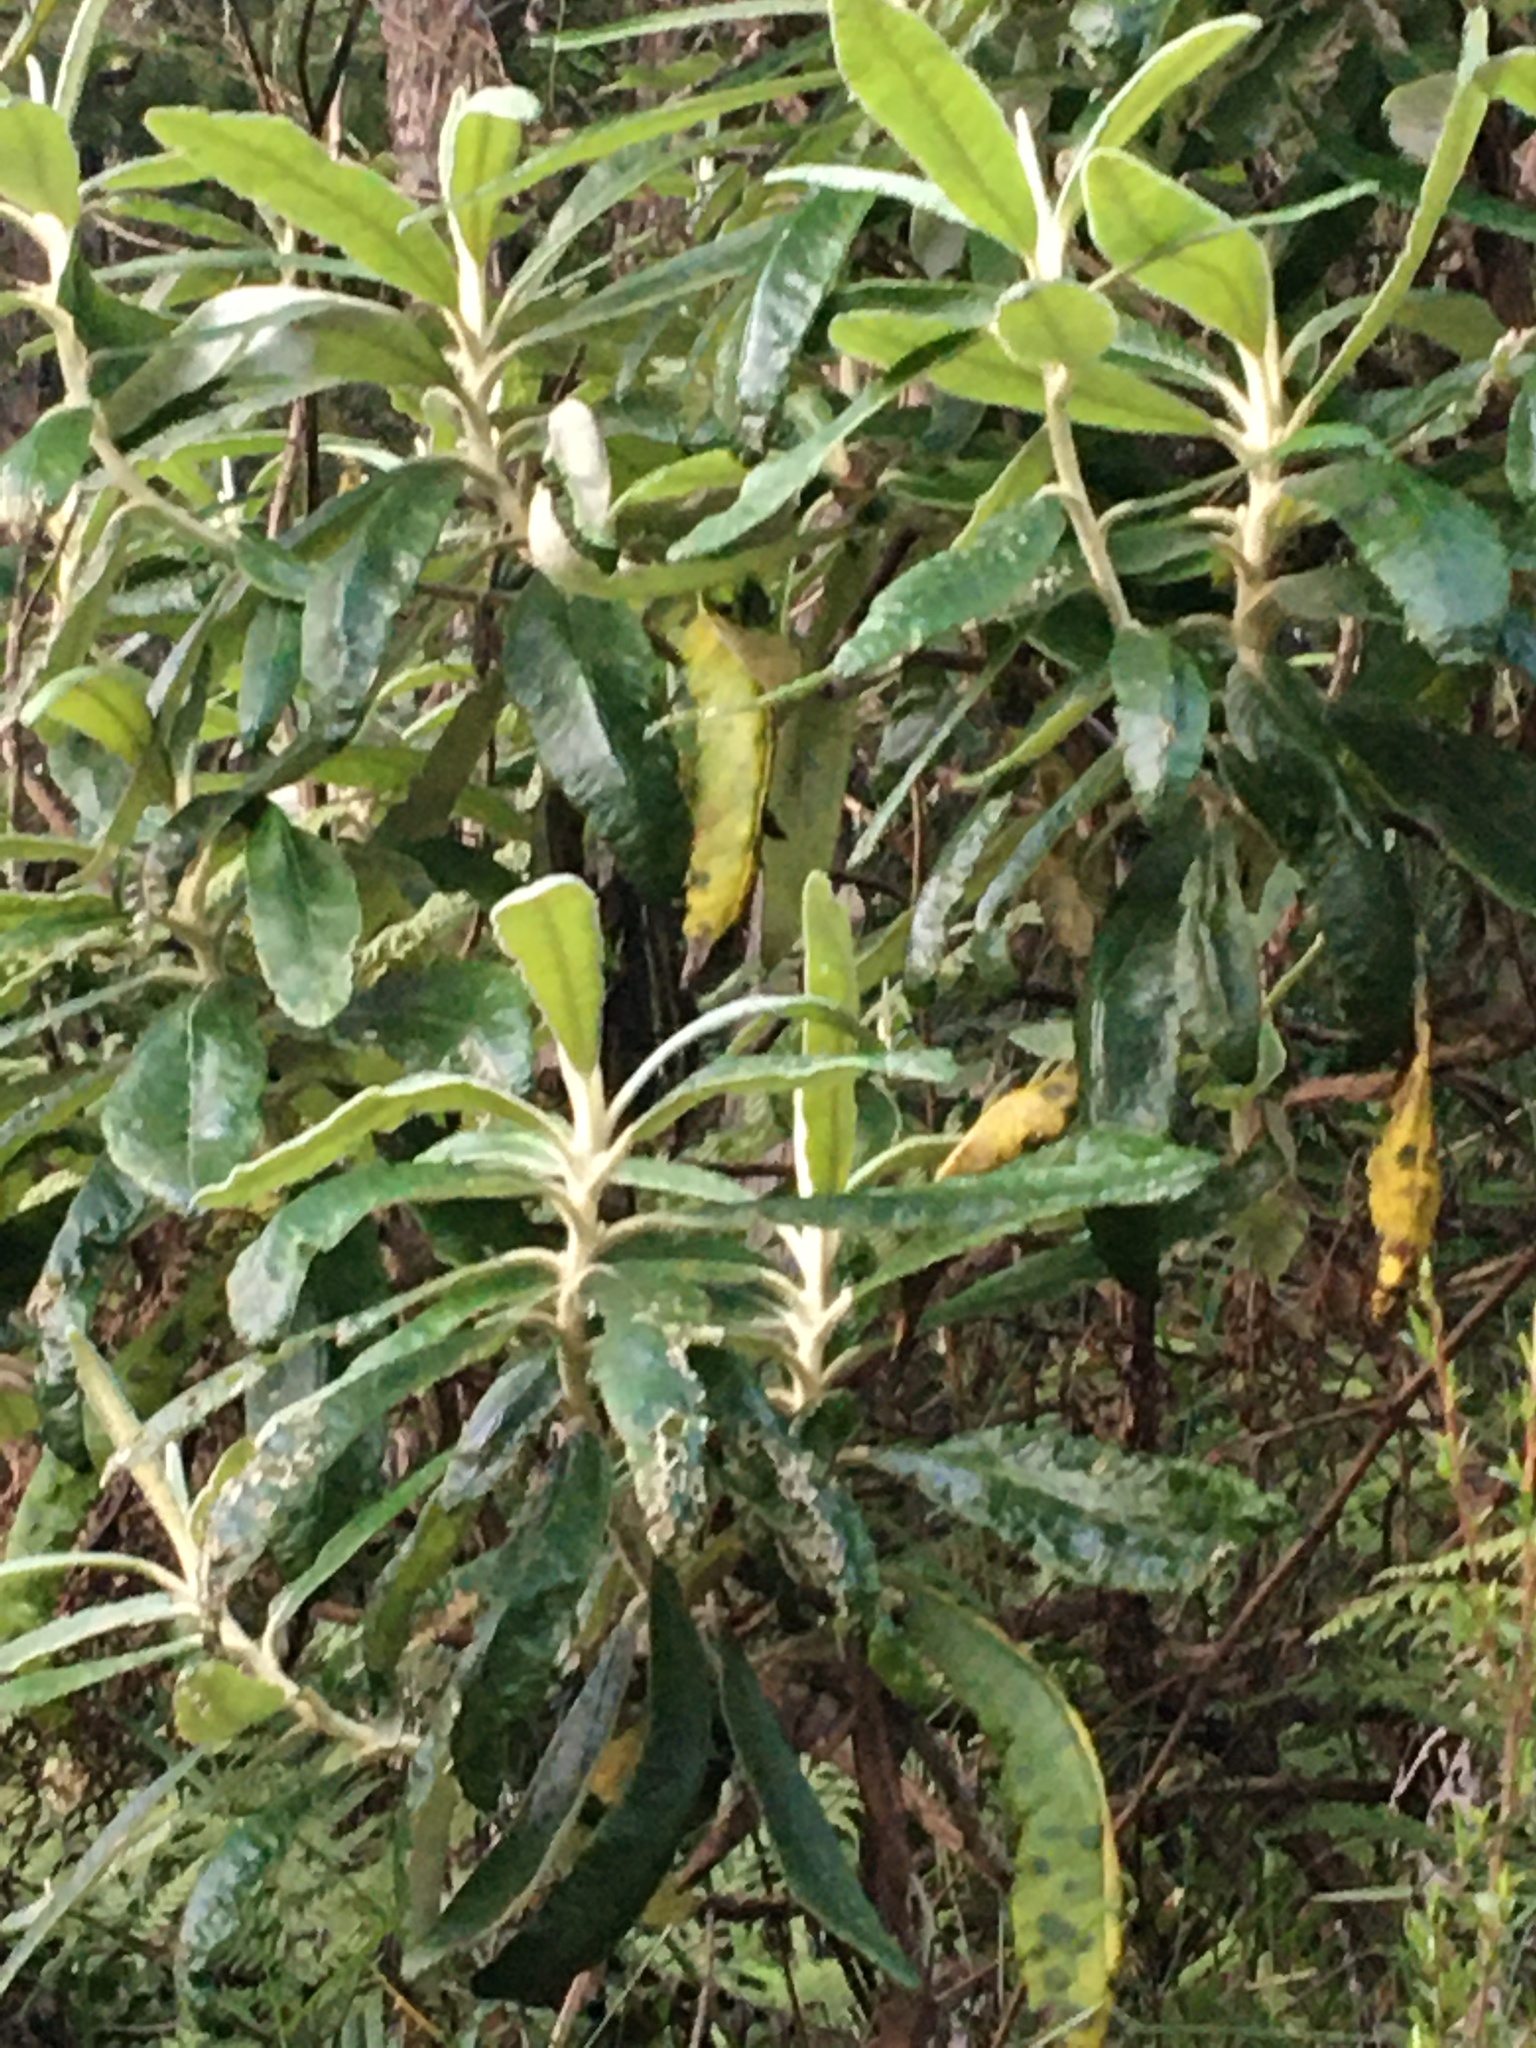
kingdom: Plantae
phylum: Tracheophyta
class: Magnoliopsida
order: Asterales
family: Asteraceae
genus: Bedfordia
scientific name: Bedfordia arborescens
